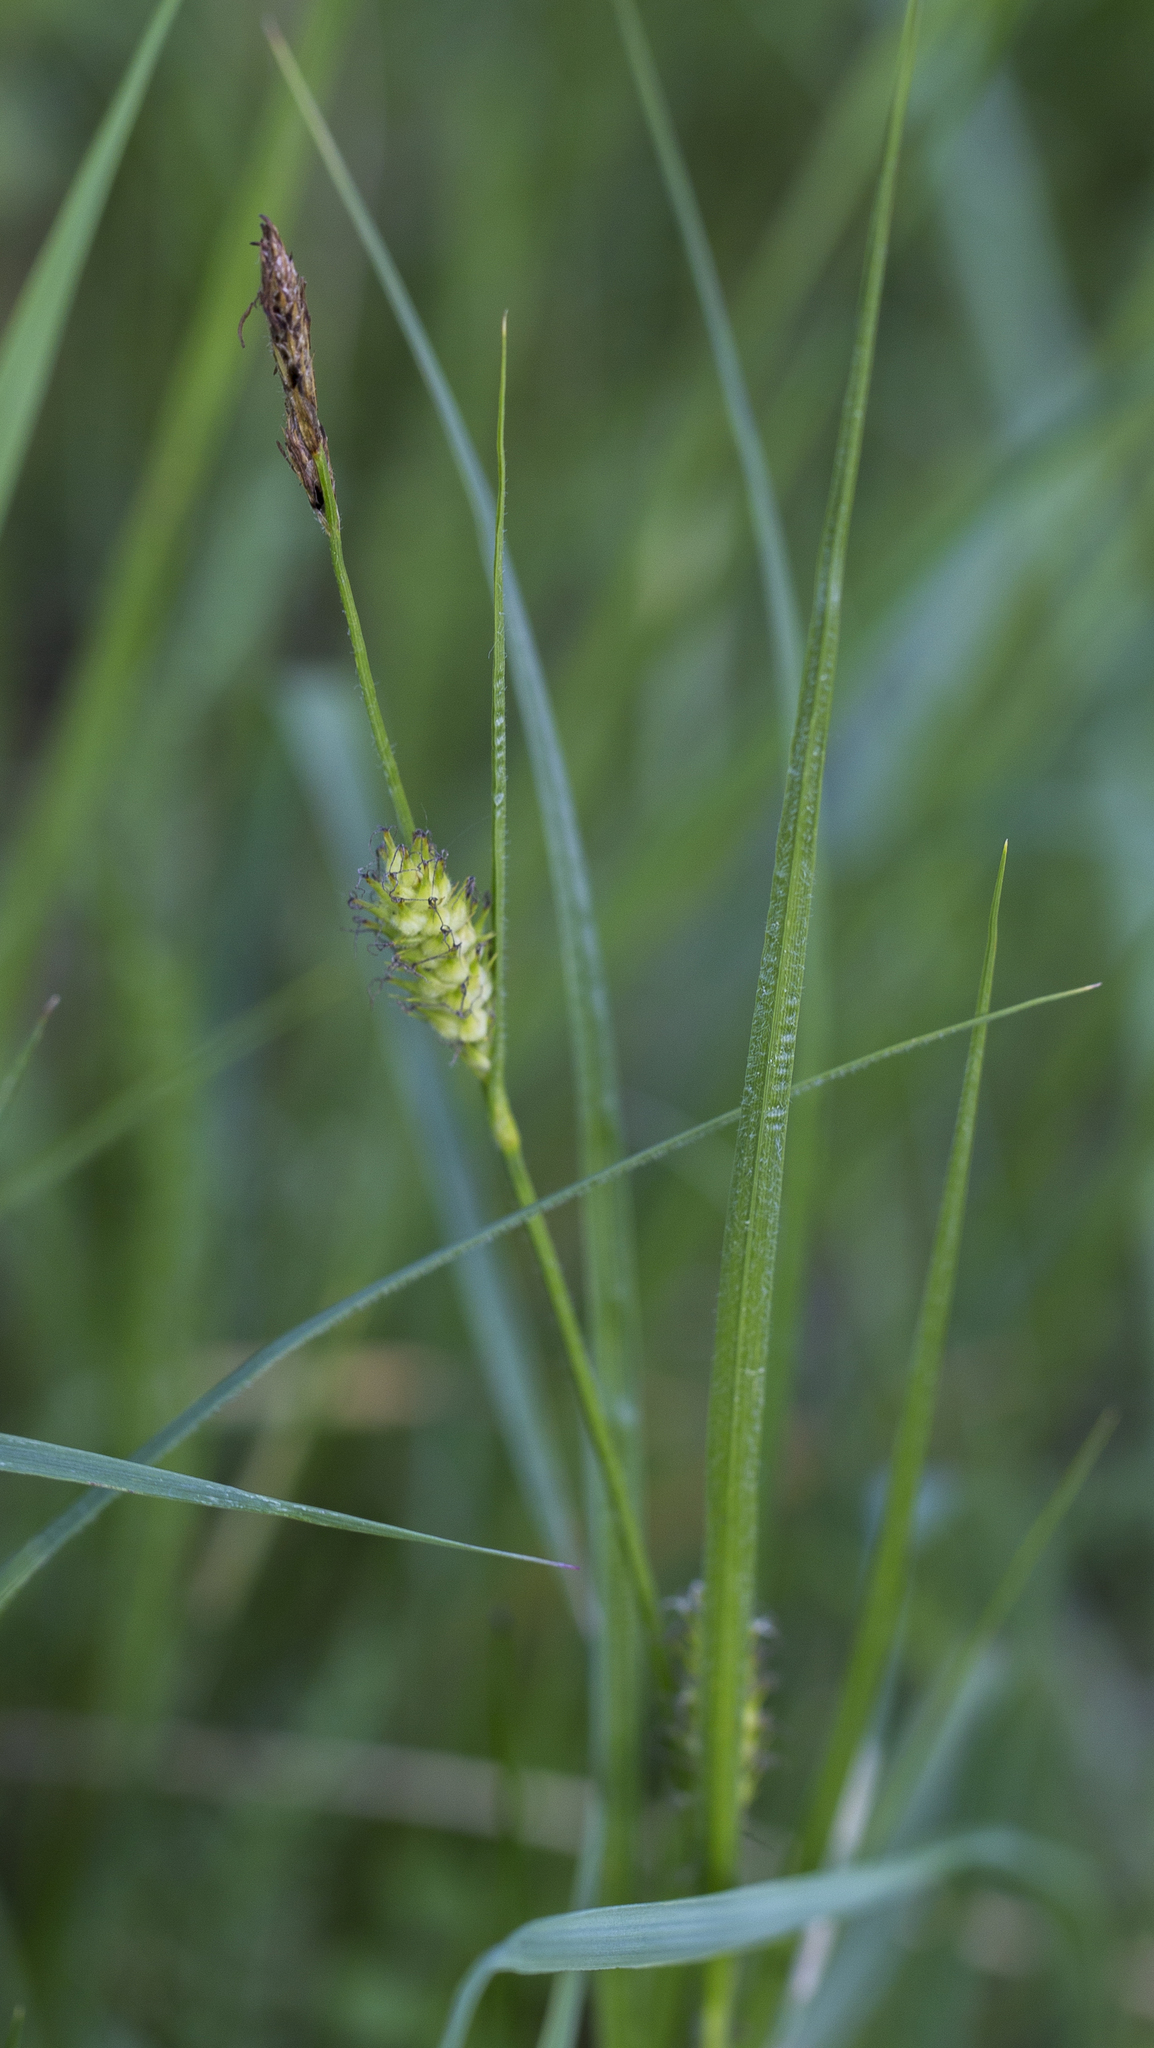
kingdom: Plantae
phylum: Tracheophyta
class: Liliopsida
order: Poales
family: Cyperaceae
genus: Carex
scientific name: Carex hirta
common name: Hairy sedge
